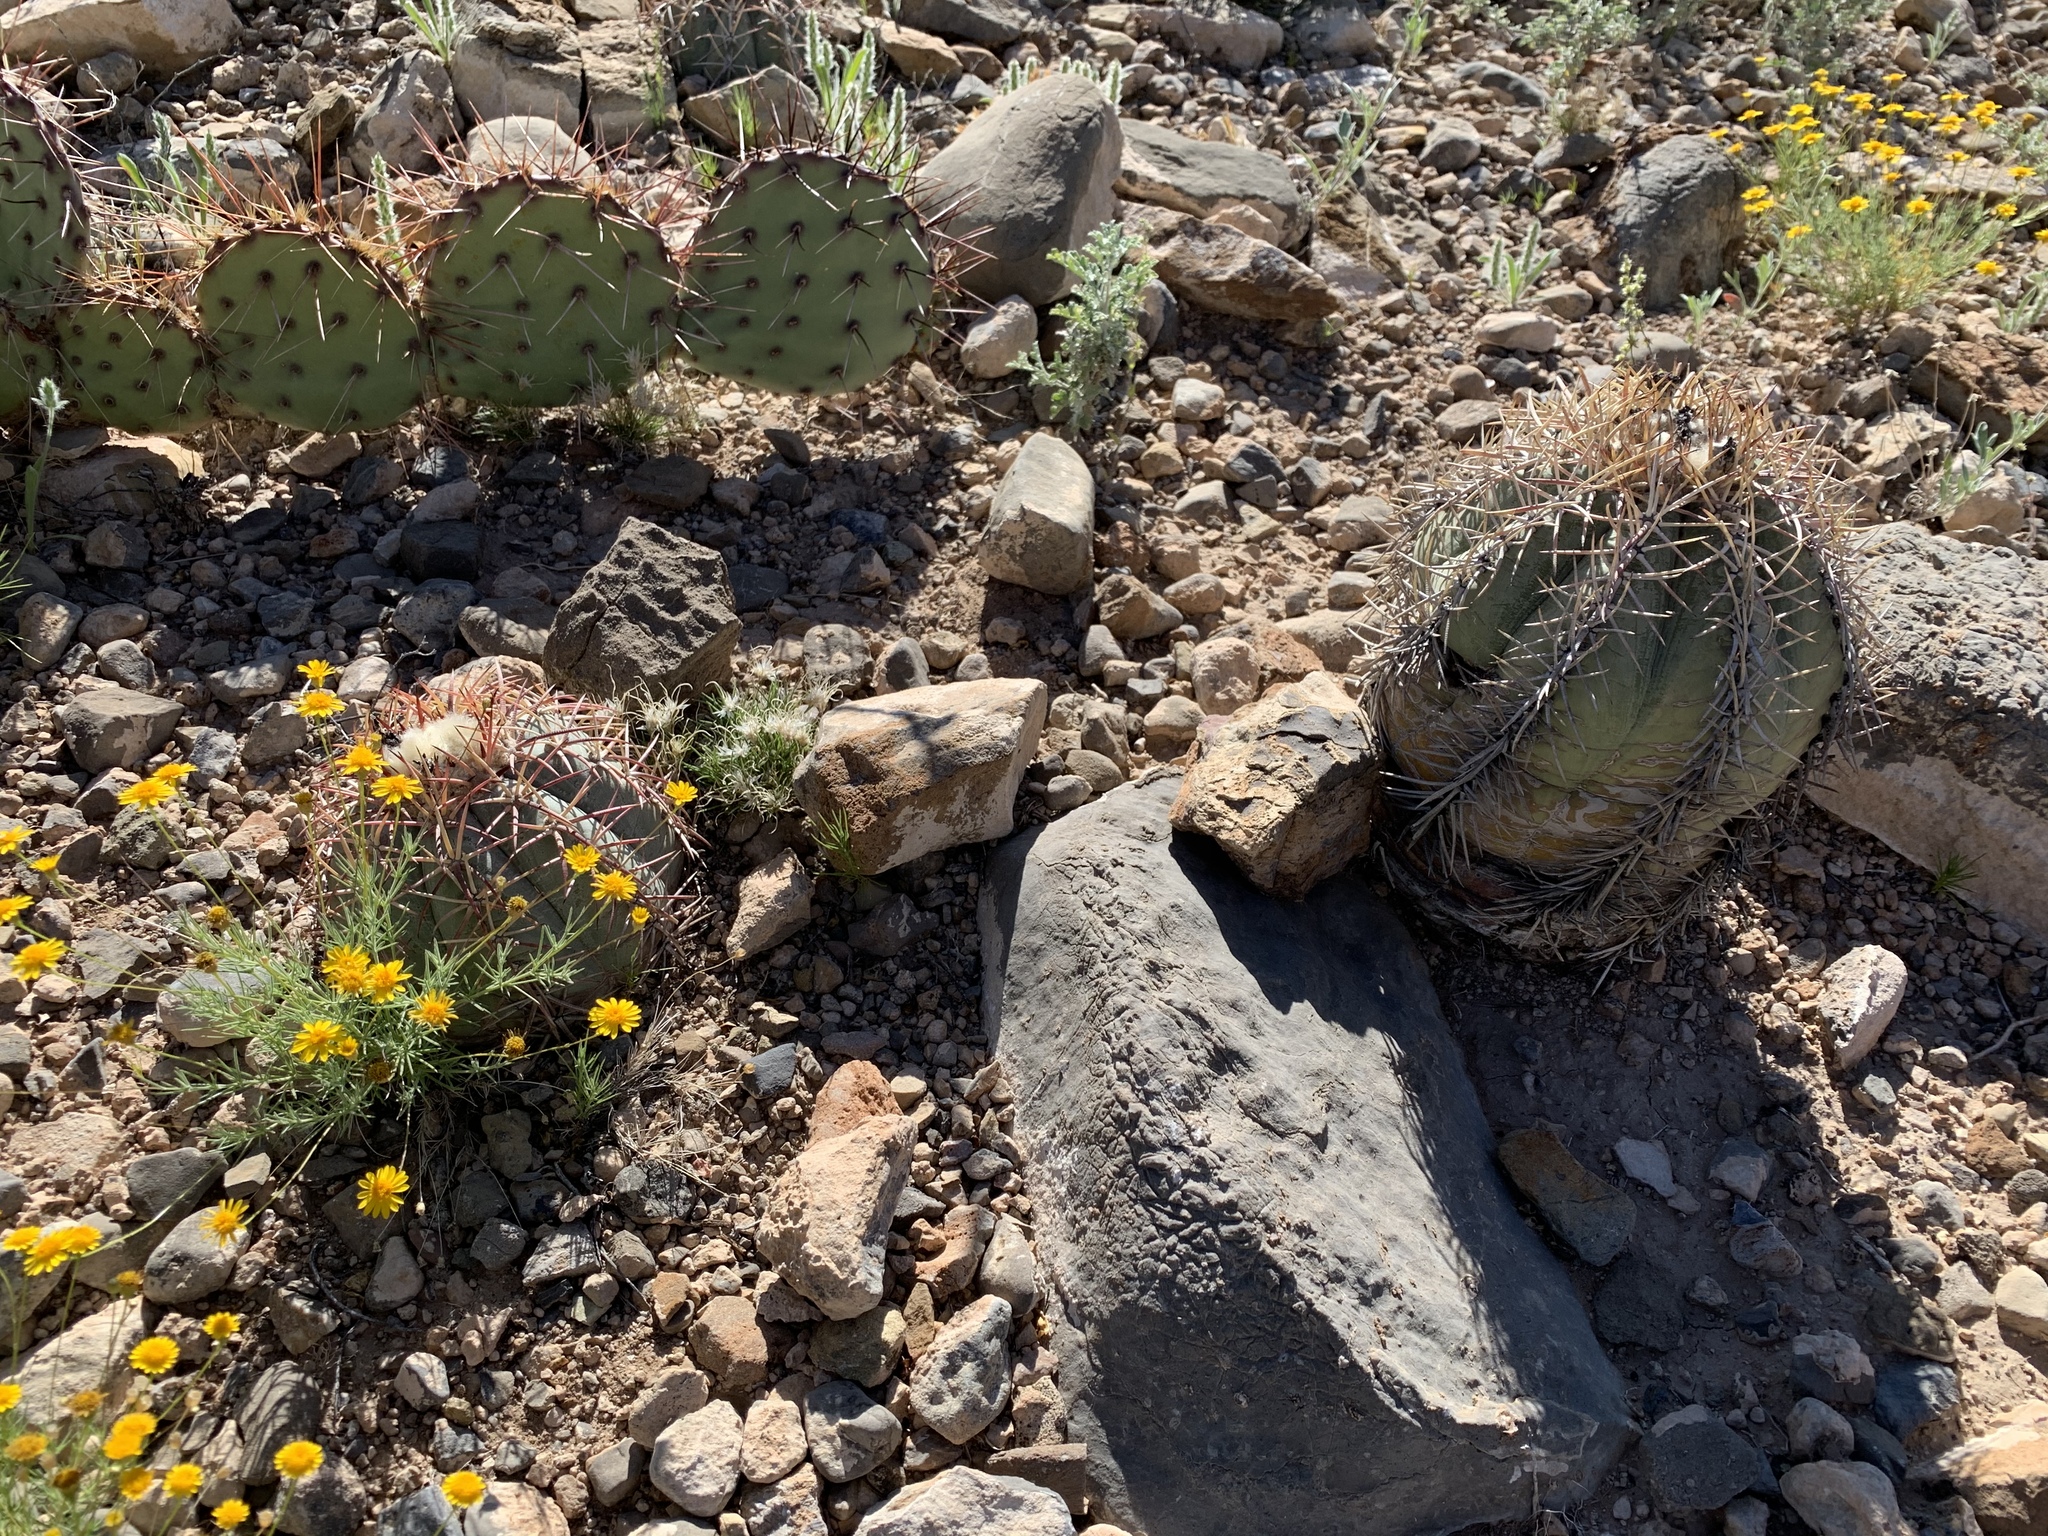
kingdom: Plantae
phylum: Tracheophyta
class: Magnoliopsida
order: Caryophyllales
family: Cactaceae
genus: Echinocactus
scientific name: Echinocactus horizonthalonius
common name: Devilshead
